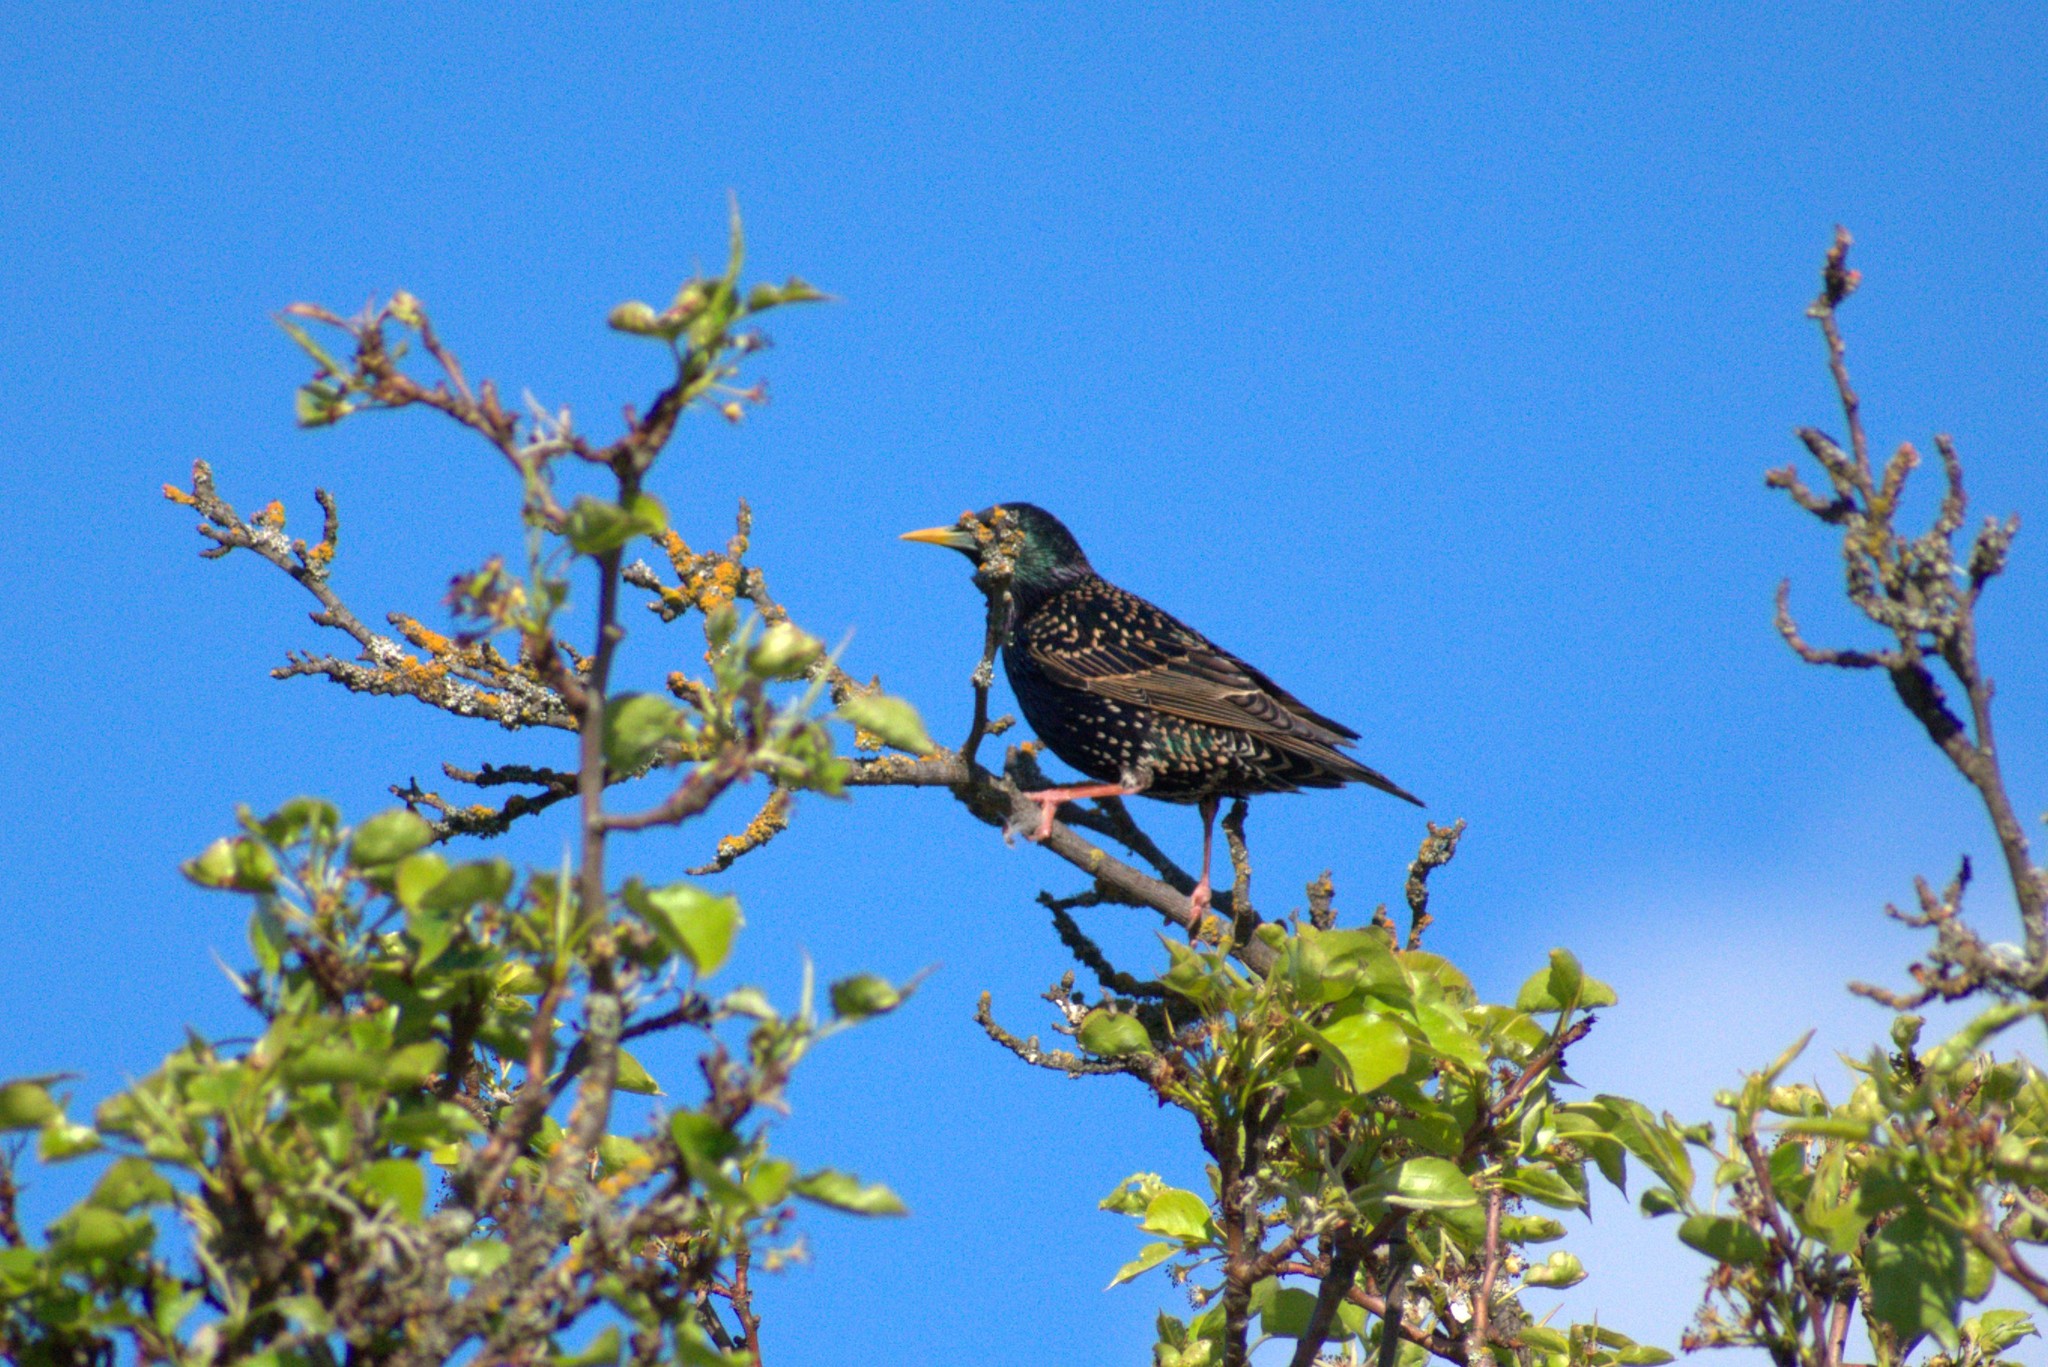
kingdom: Animalia
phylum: Chordata
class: Aves
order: Passeriformes
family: Sturnidae
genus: Sturnus
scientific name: Sturnus vulgaris
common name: Common starling
